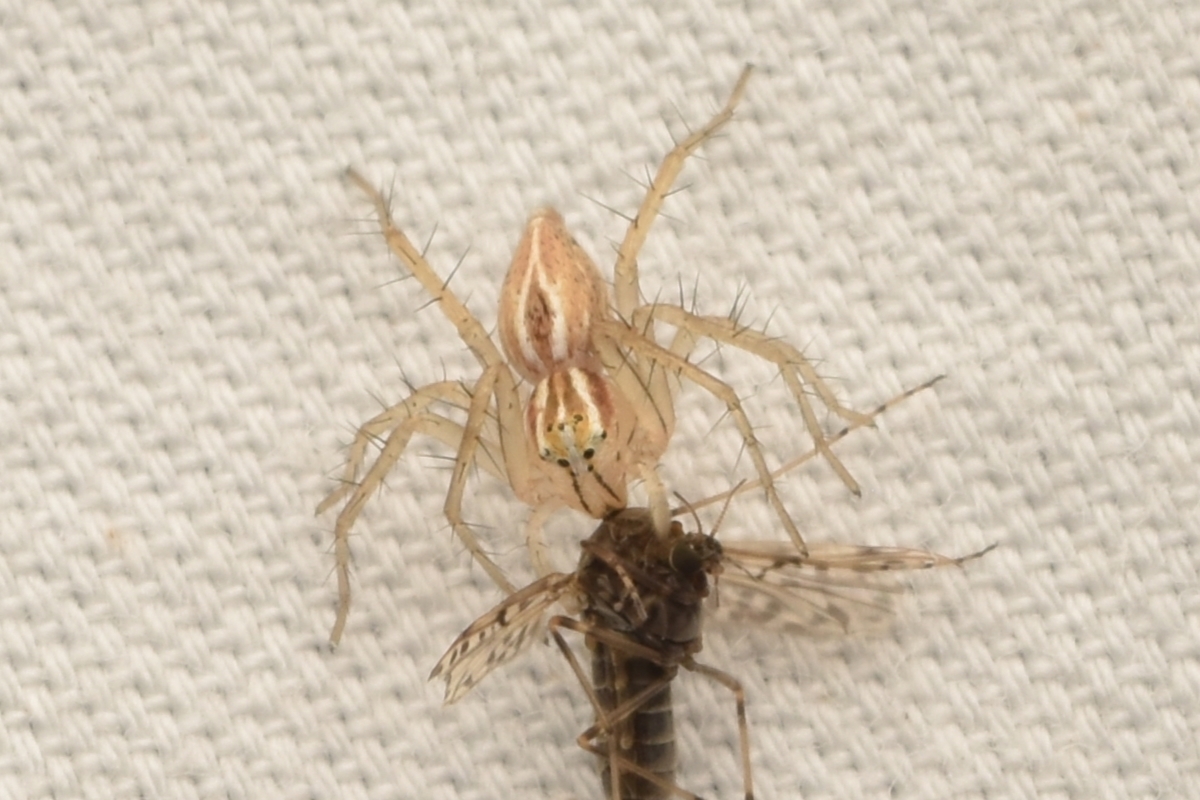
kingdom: Animalia
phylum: Arthropoda
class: Arachnida
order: Araneae
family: Oxyopidae
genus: Oxyopes
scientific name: Oxyopes salticus
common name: Lynx spiders
